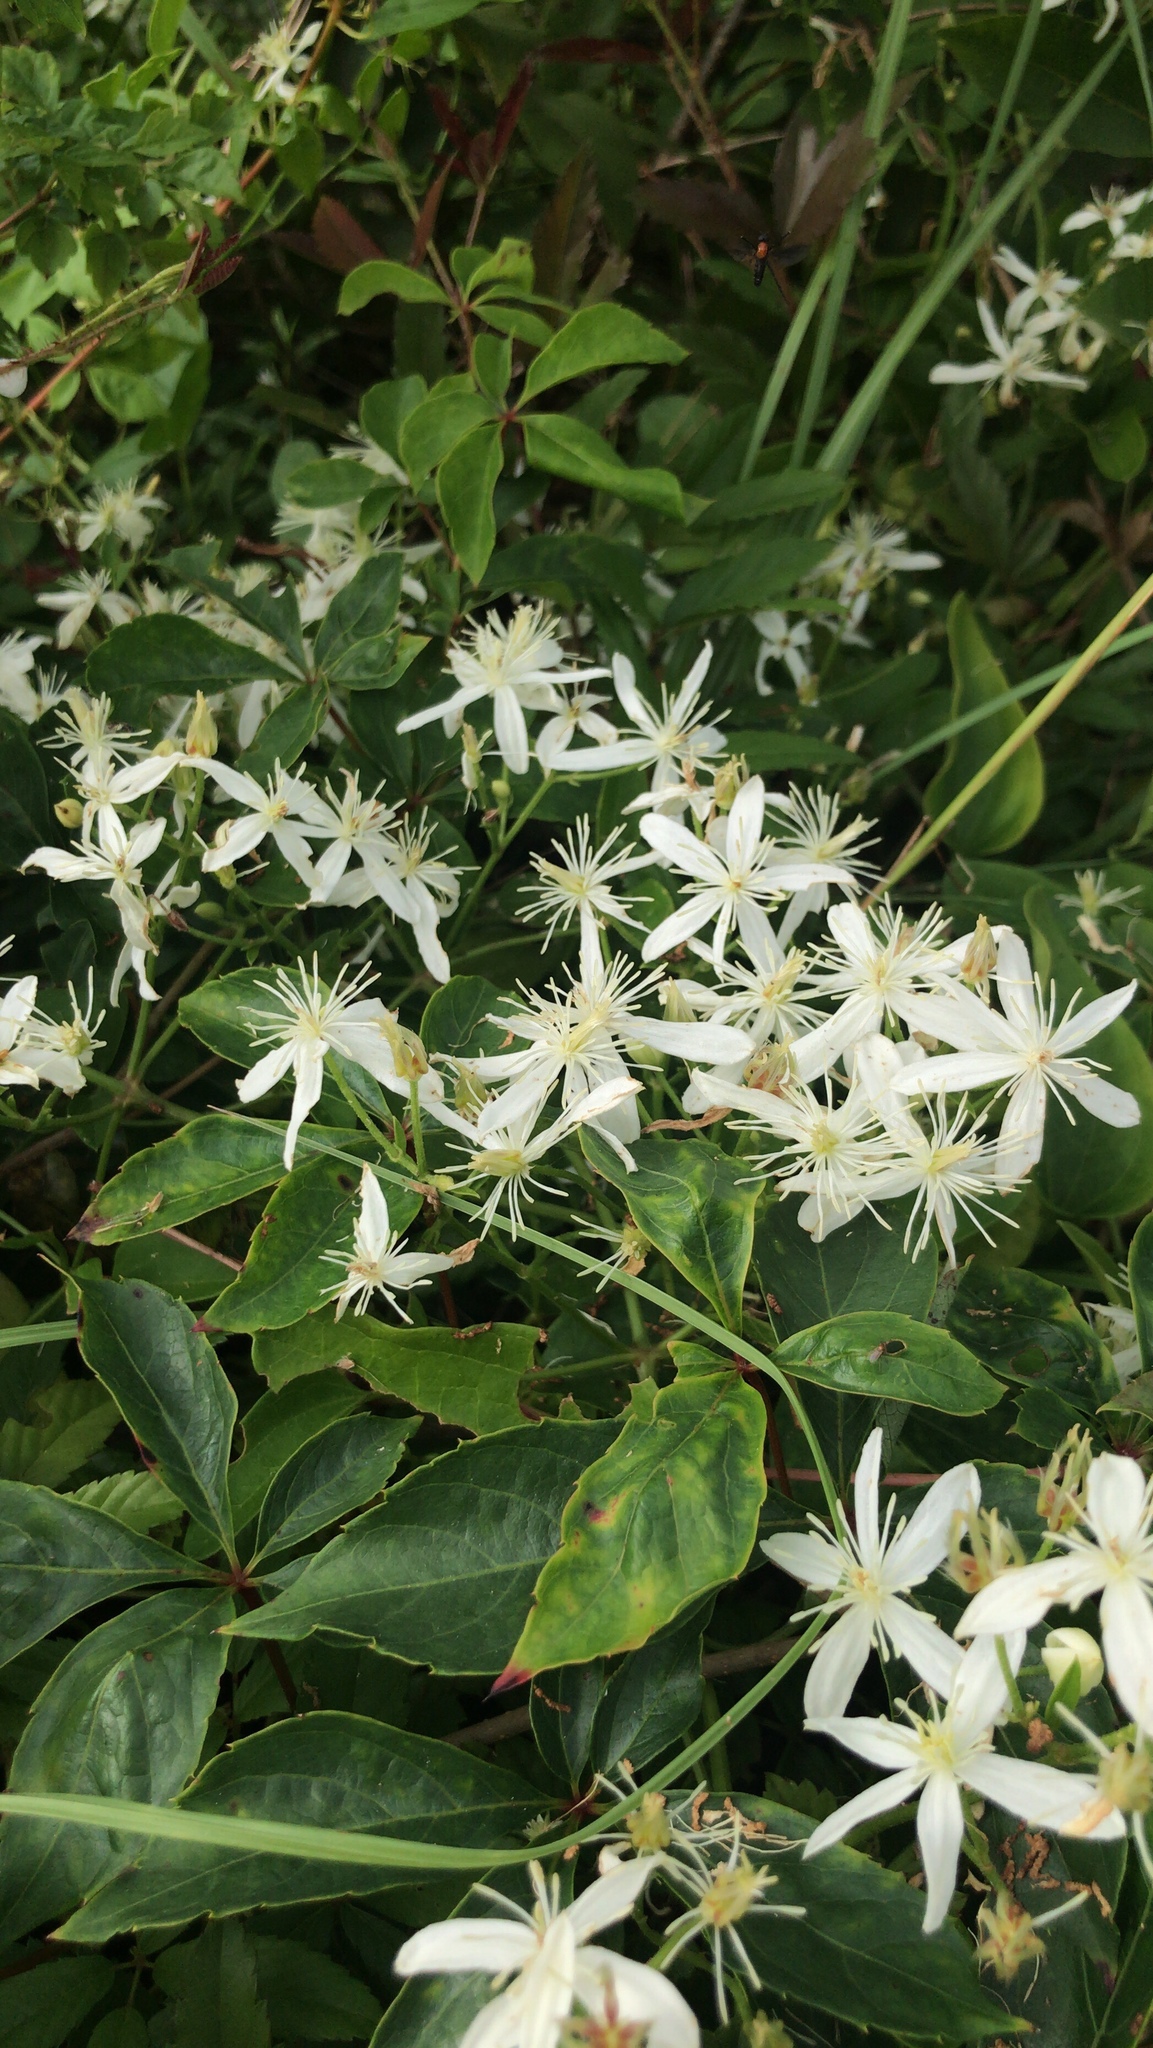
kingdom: Plantae
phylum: Tracheophyta
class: Magnoliopsida
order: Ranunculales
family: Ranunculaceae
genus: Clematis
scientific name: Clematis terniflora
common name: Sweet autumn clematis
